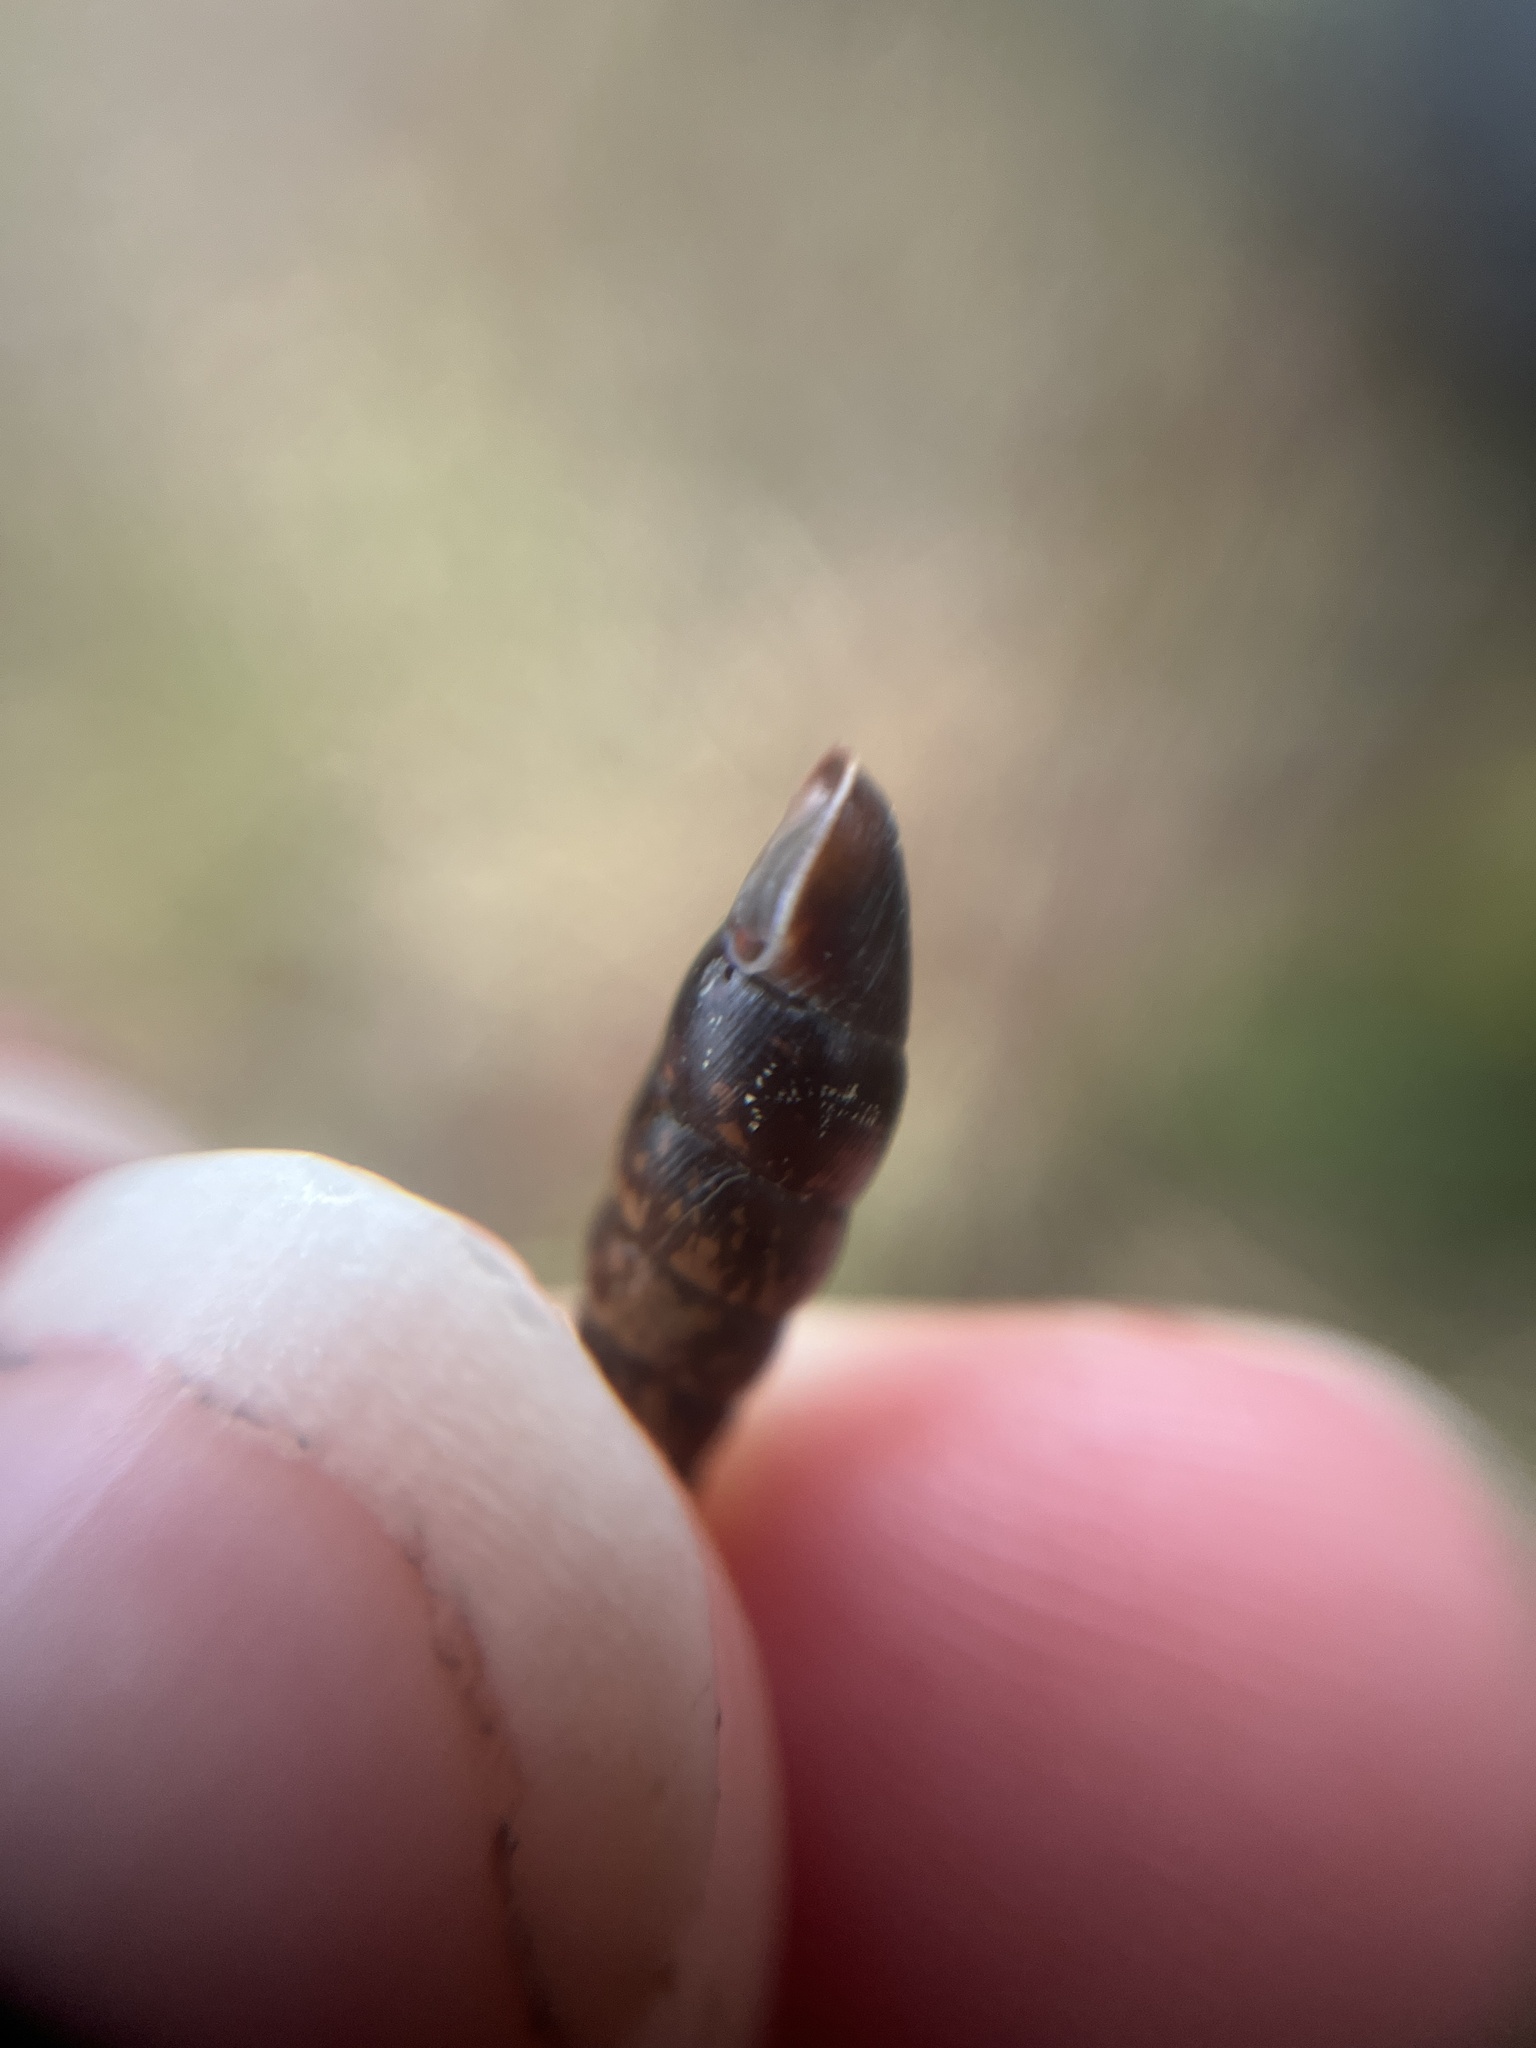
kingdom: Animalia
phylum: Mollusca
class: Gastropoda
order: Stylommatophora
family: Clausiliidae
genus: Cochlodina
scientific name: Cochlodina laminata
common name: Plaited door snail
